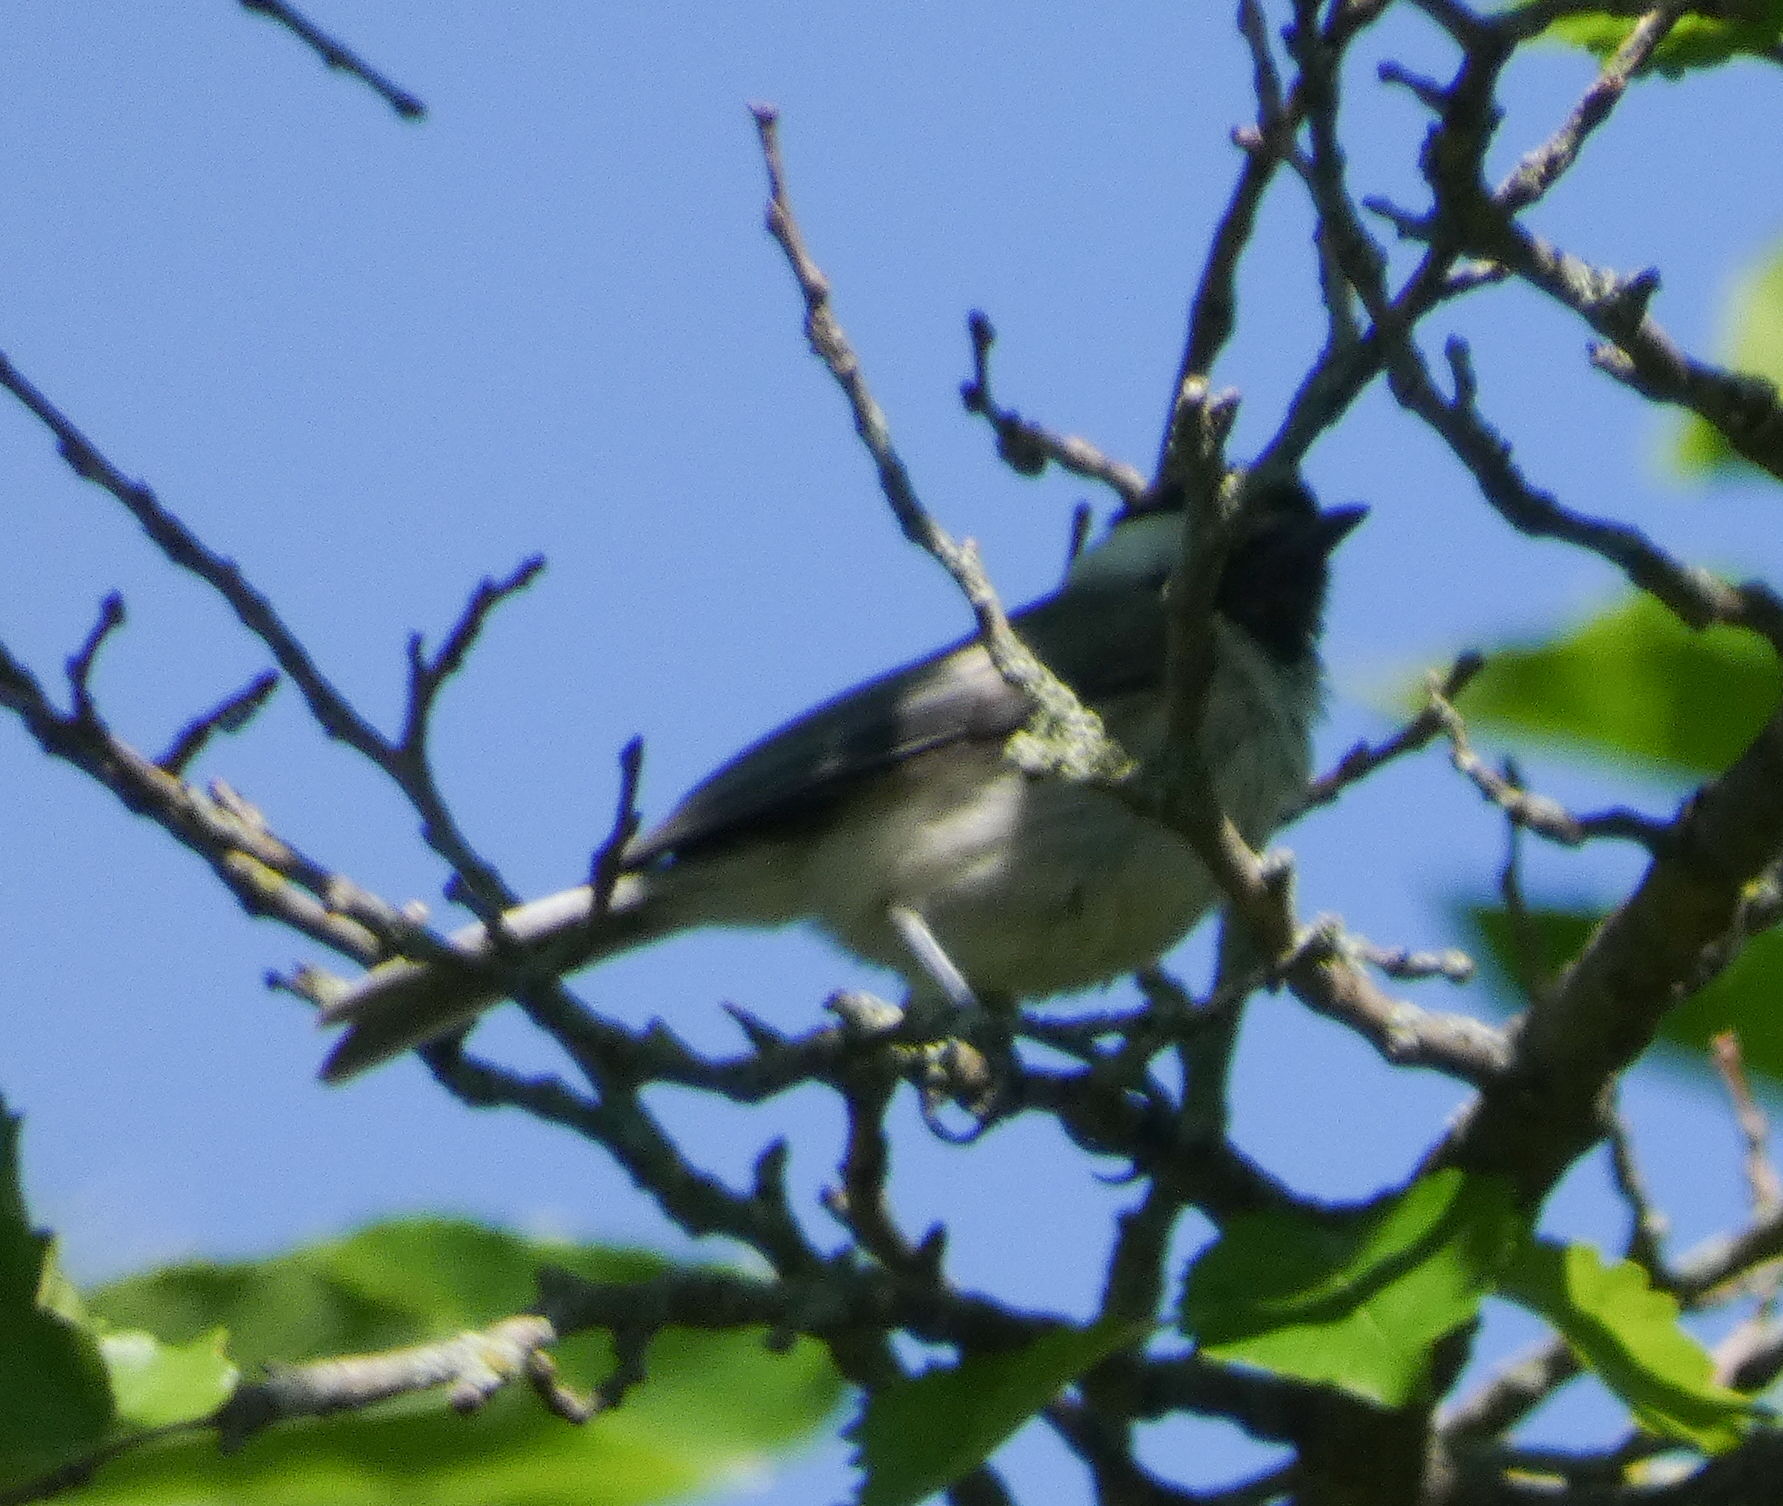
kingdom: Animalia
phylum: Chordata
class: Aves
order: Passeriformes
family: Paridae
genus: Poecile
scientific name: Poecile carolinensis
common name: Carolina chickadee
